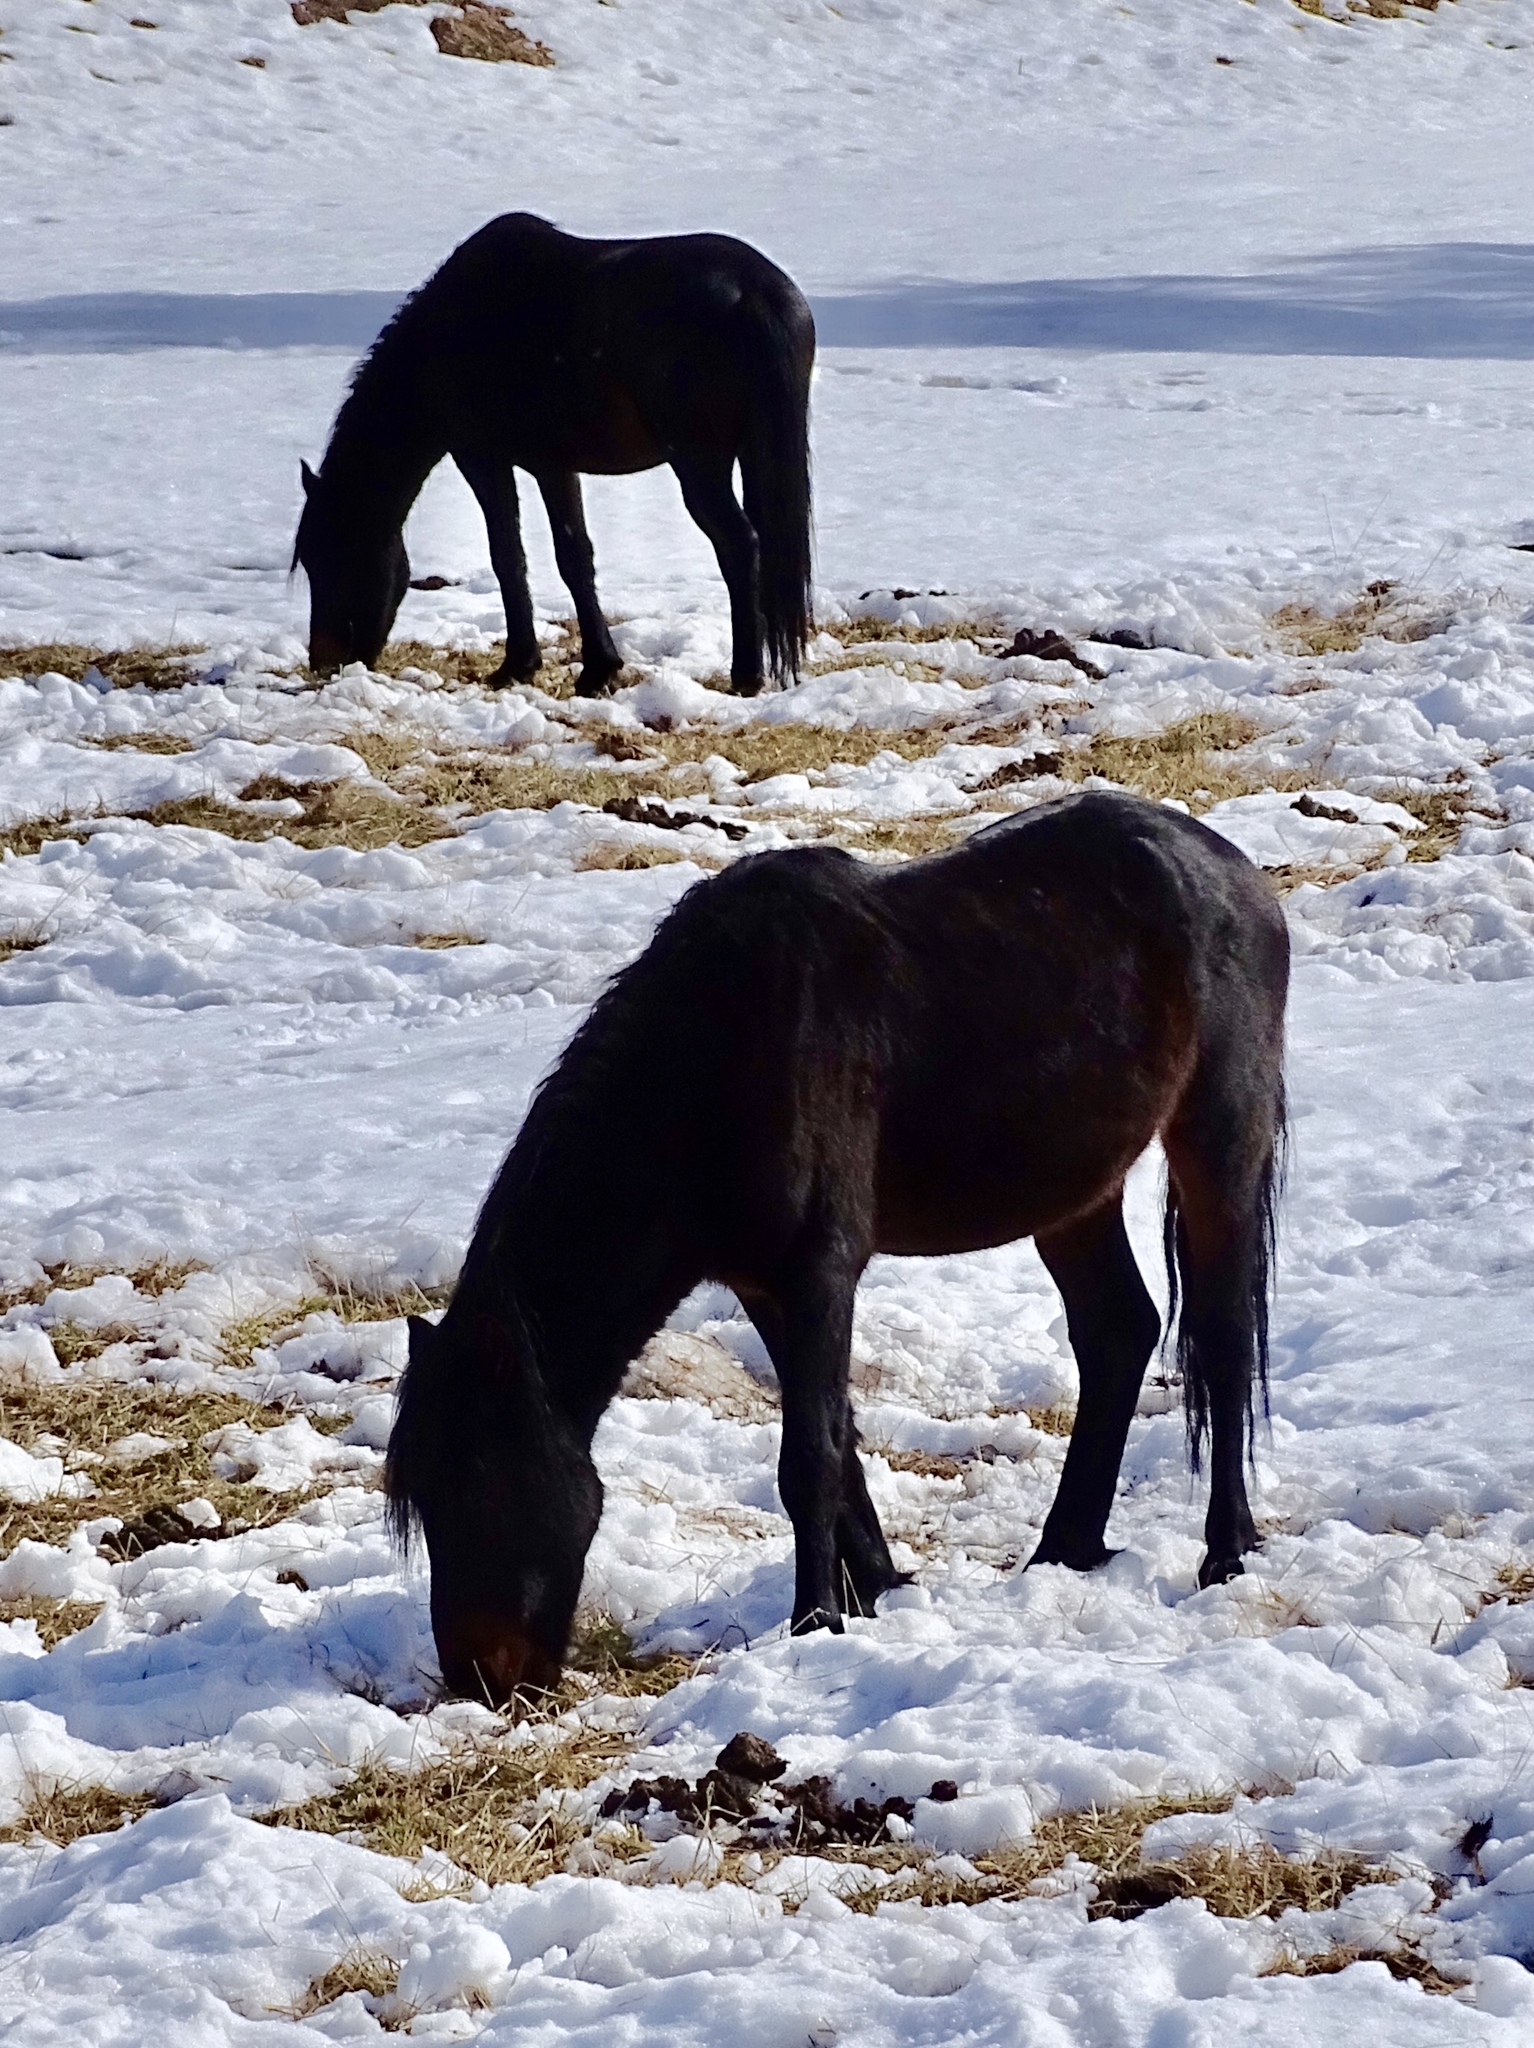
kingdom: Animalia
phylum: Chordata
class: Mammalia
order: Perissodactyla
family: Equidae
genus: Equus
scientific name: Equus caballus
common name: Horse
